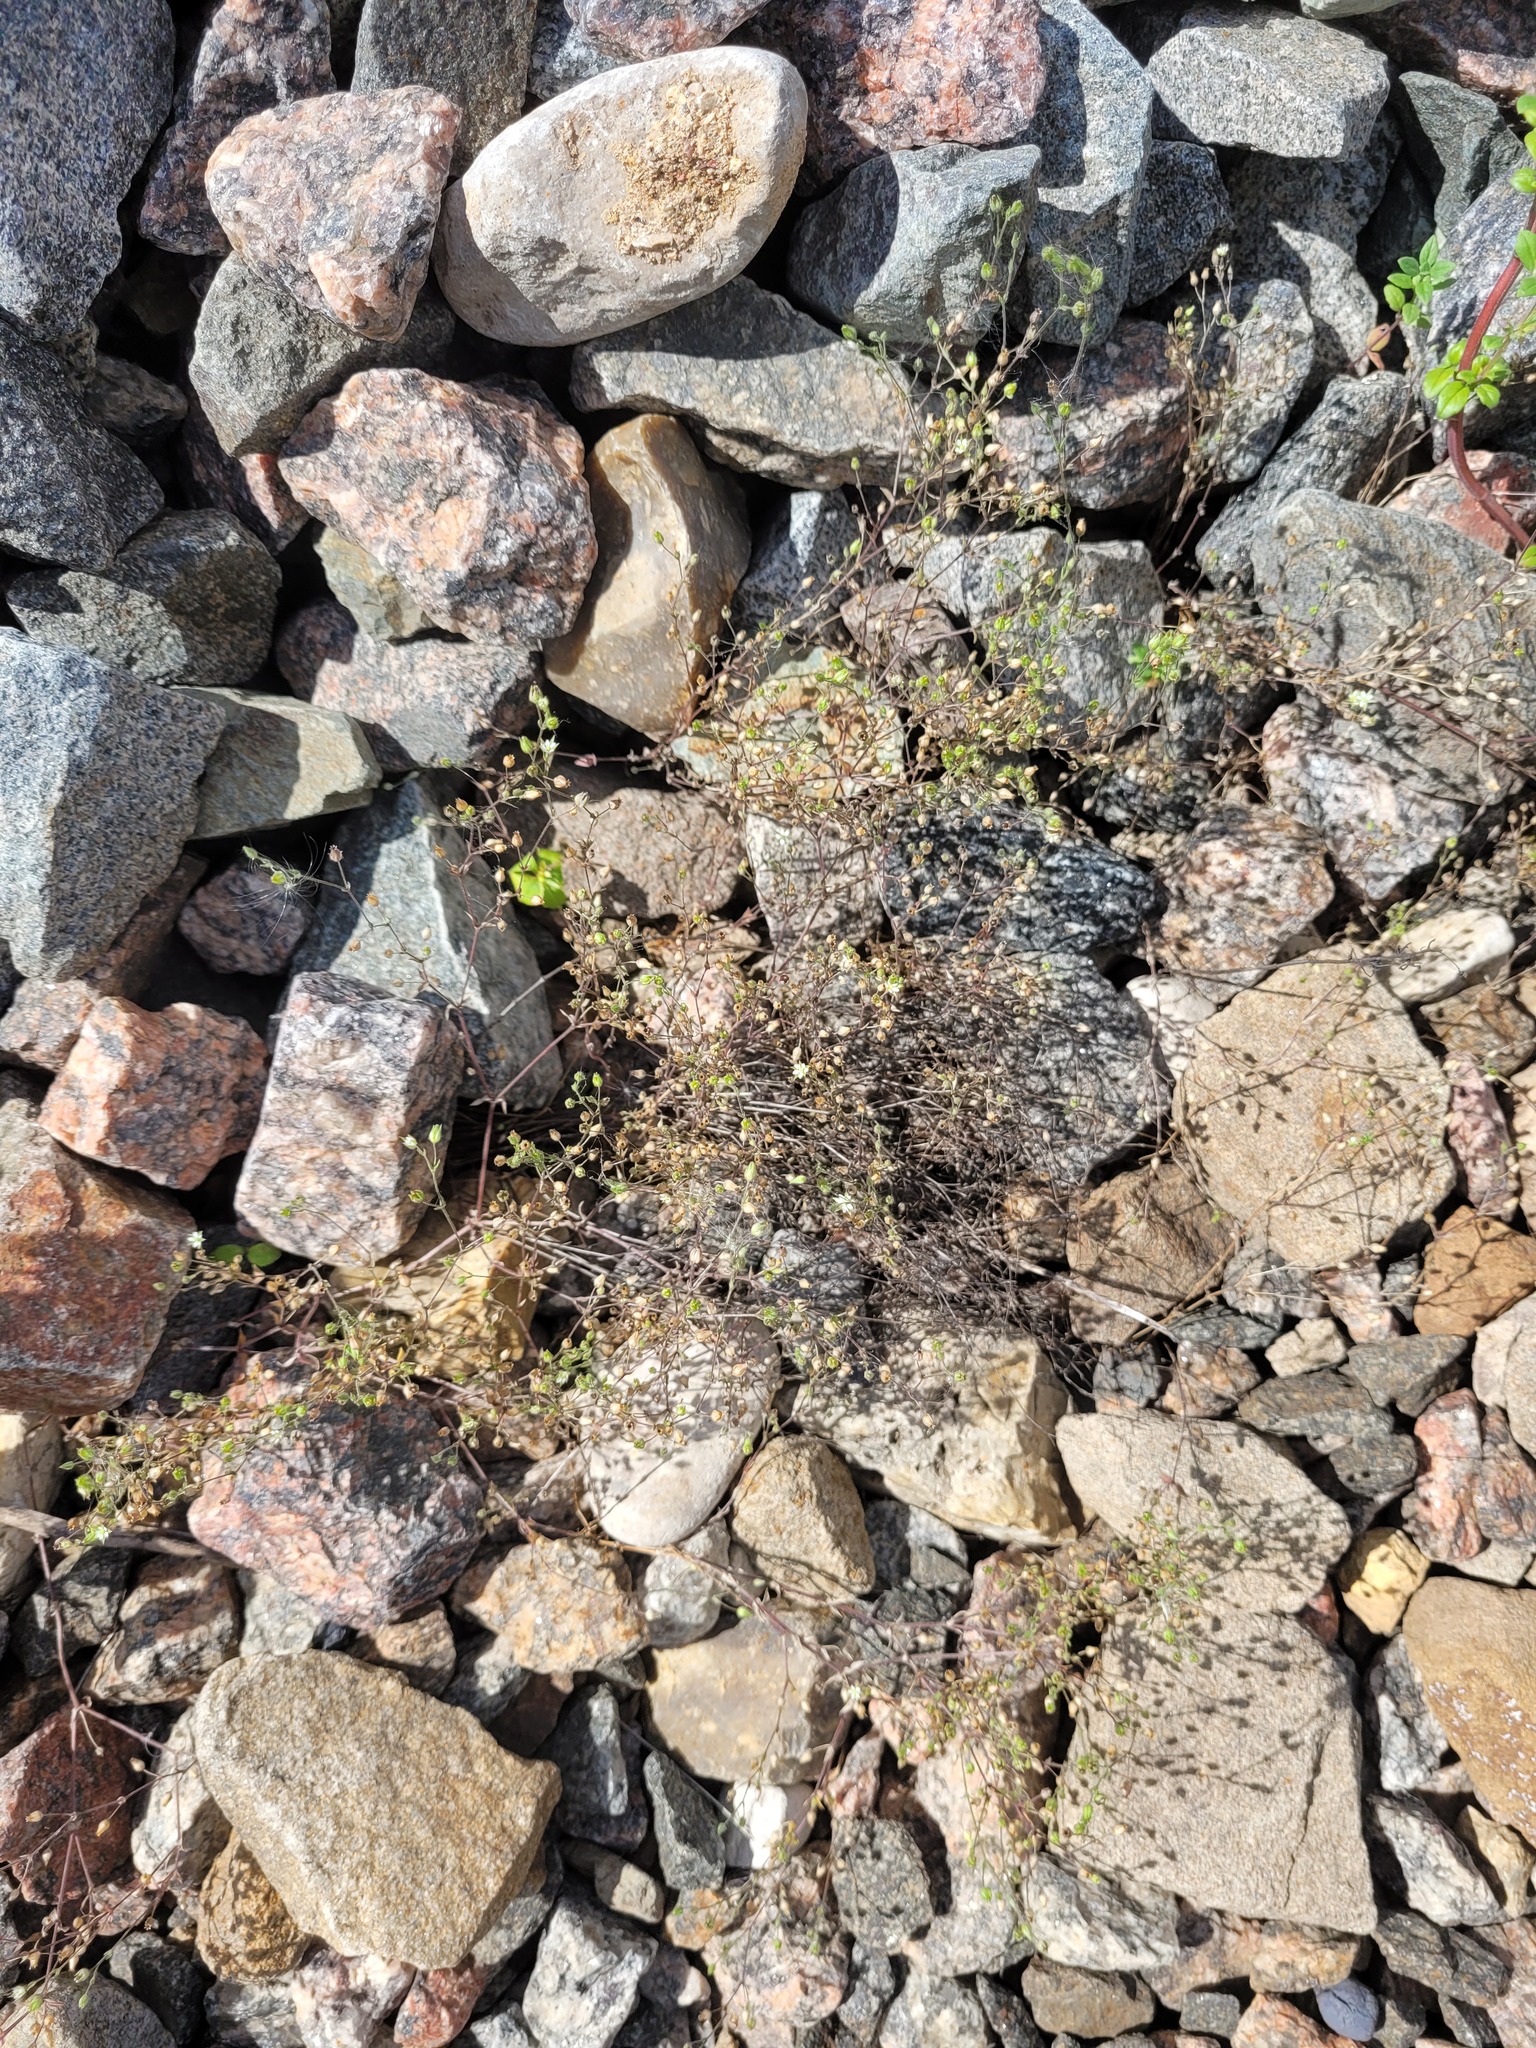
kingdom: Plantae
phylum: Tracheophyta
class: Magnoliopsida
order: Caryophyllales
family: Caryophyllaceae
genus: Arenaria
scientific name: Arenaria serpyllifolia
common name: Thyme-leaved sandwort
